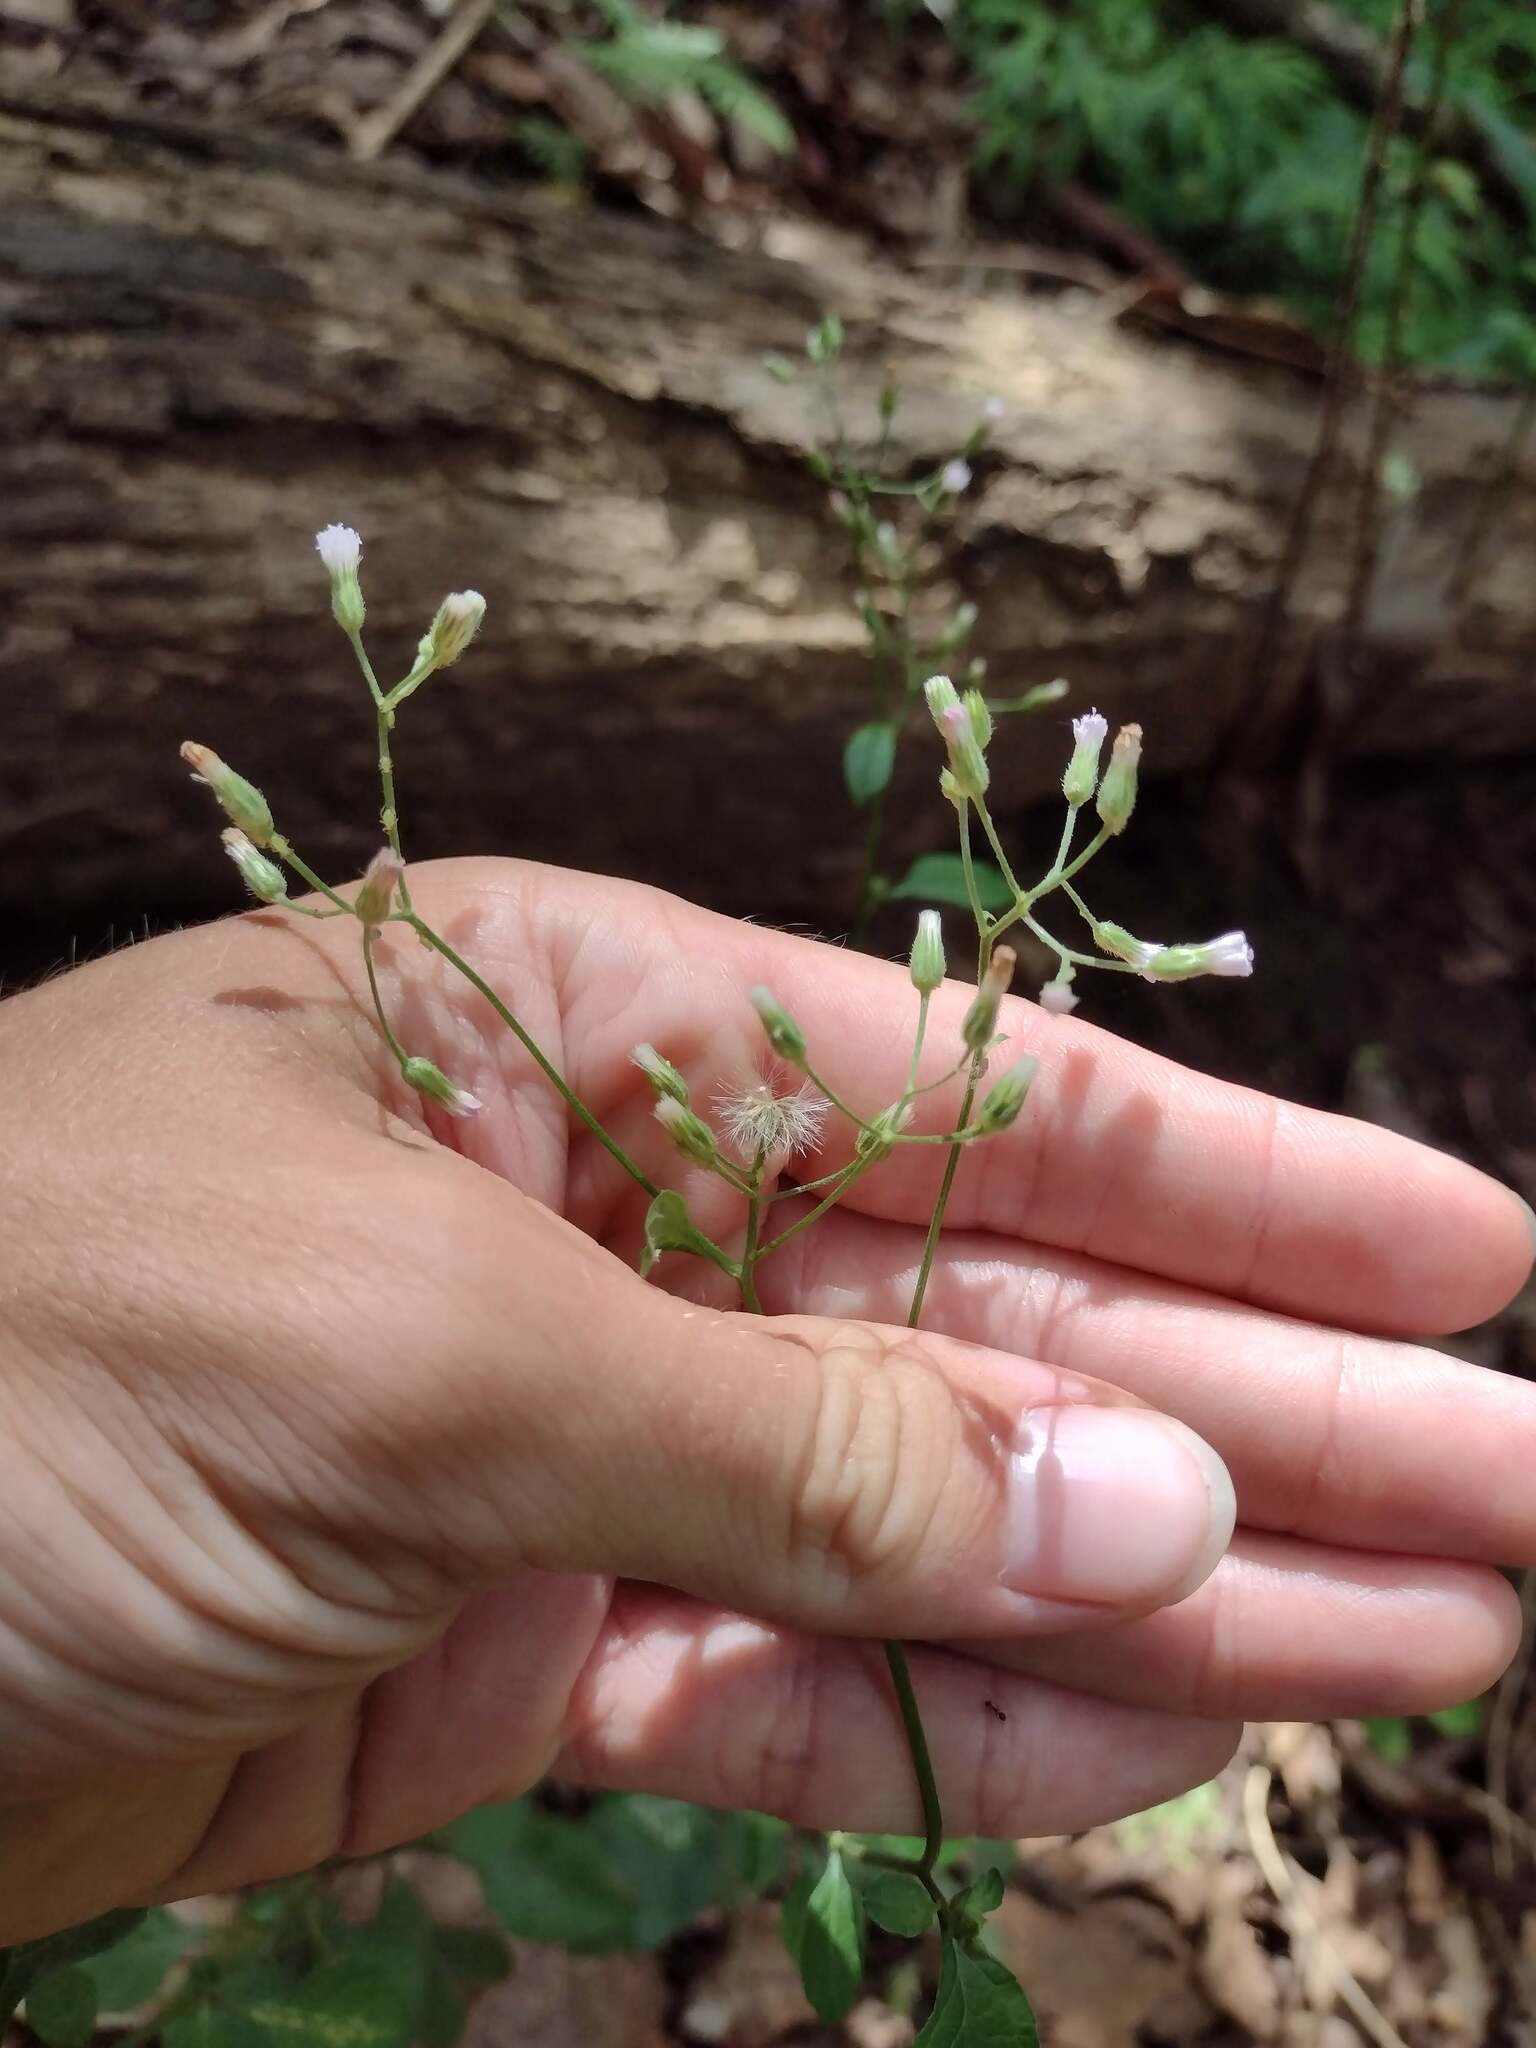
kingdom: Plantae
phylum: Tracheophyta
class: Magnoliopsida
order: Asterales
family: Asteraceae
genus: Cyanthillium
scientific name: Cyanthillium cinereum
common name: Little ironweed
